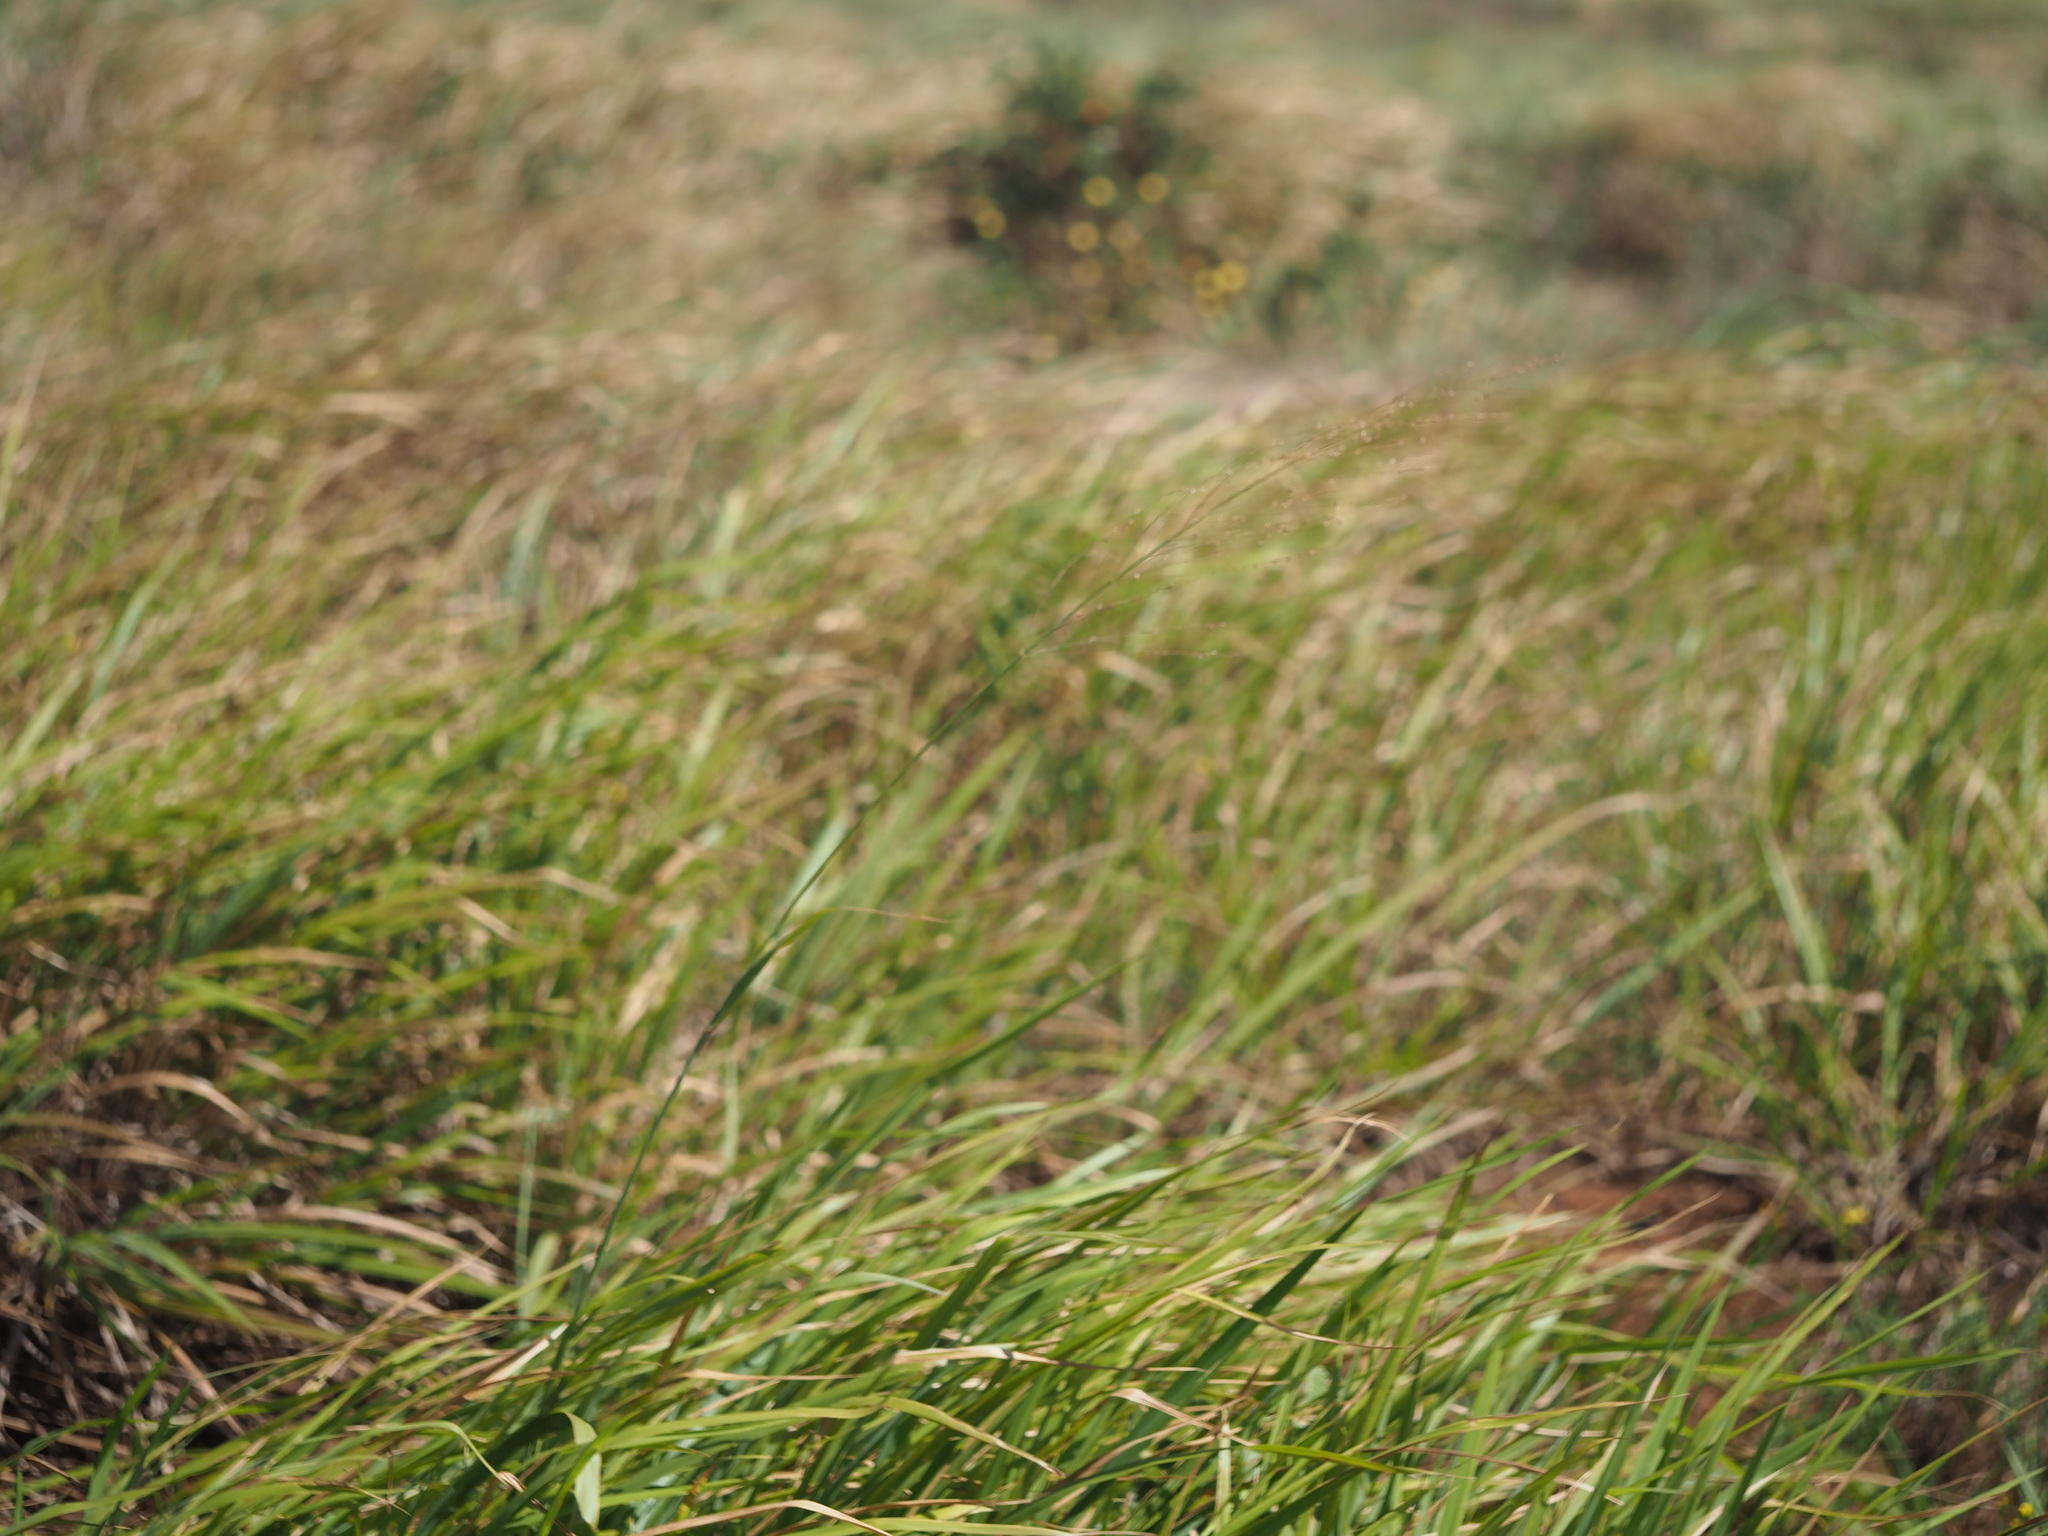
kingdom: Plantae
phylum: Tracheophyta
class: Liliopsida
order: Poales
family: Poaceae
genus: Megathyrsus
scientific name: Megathyrsus maximus
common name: Guineagrass
